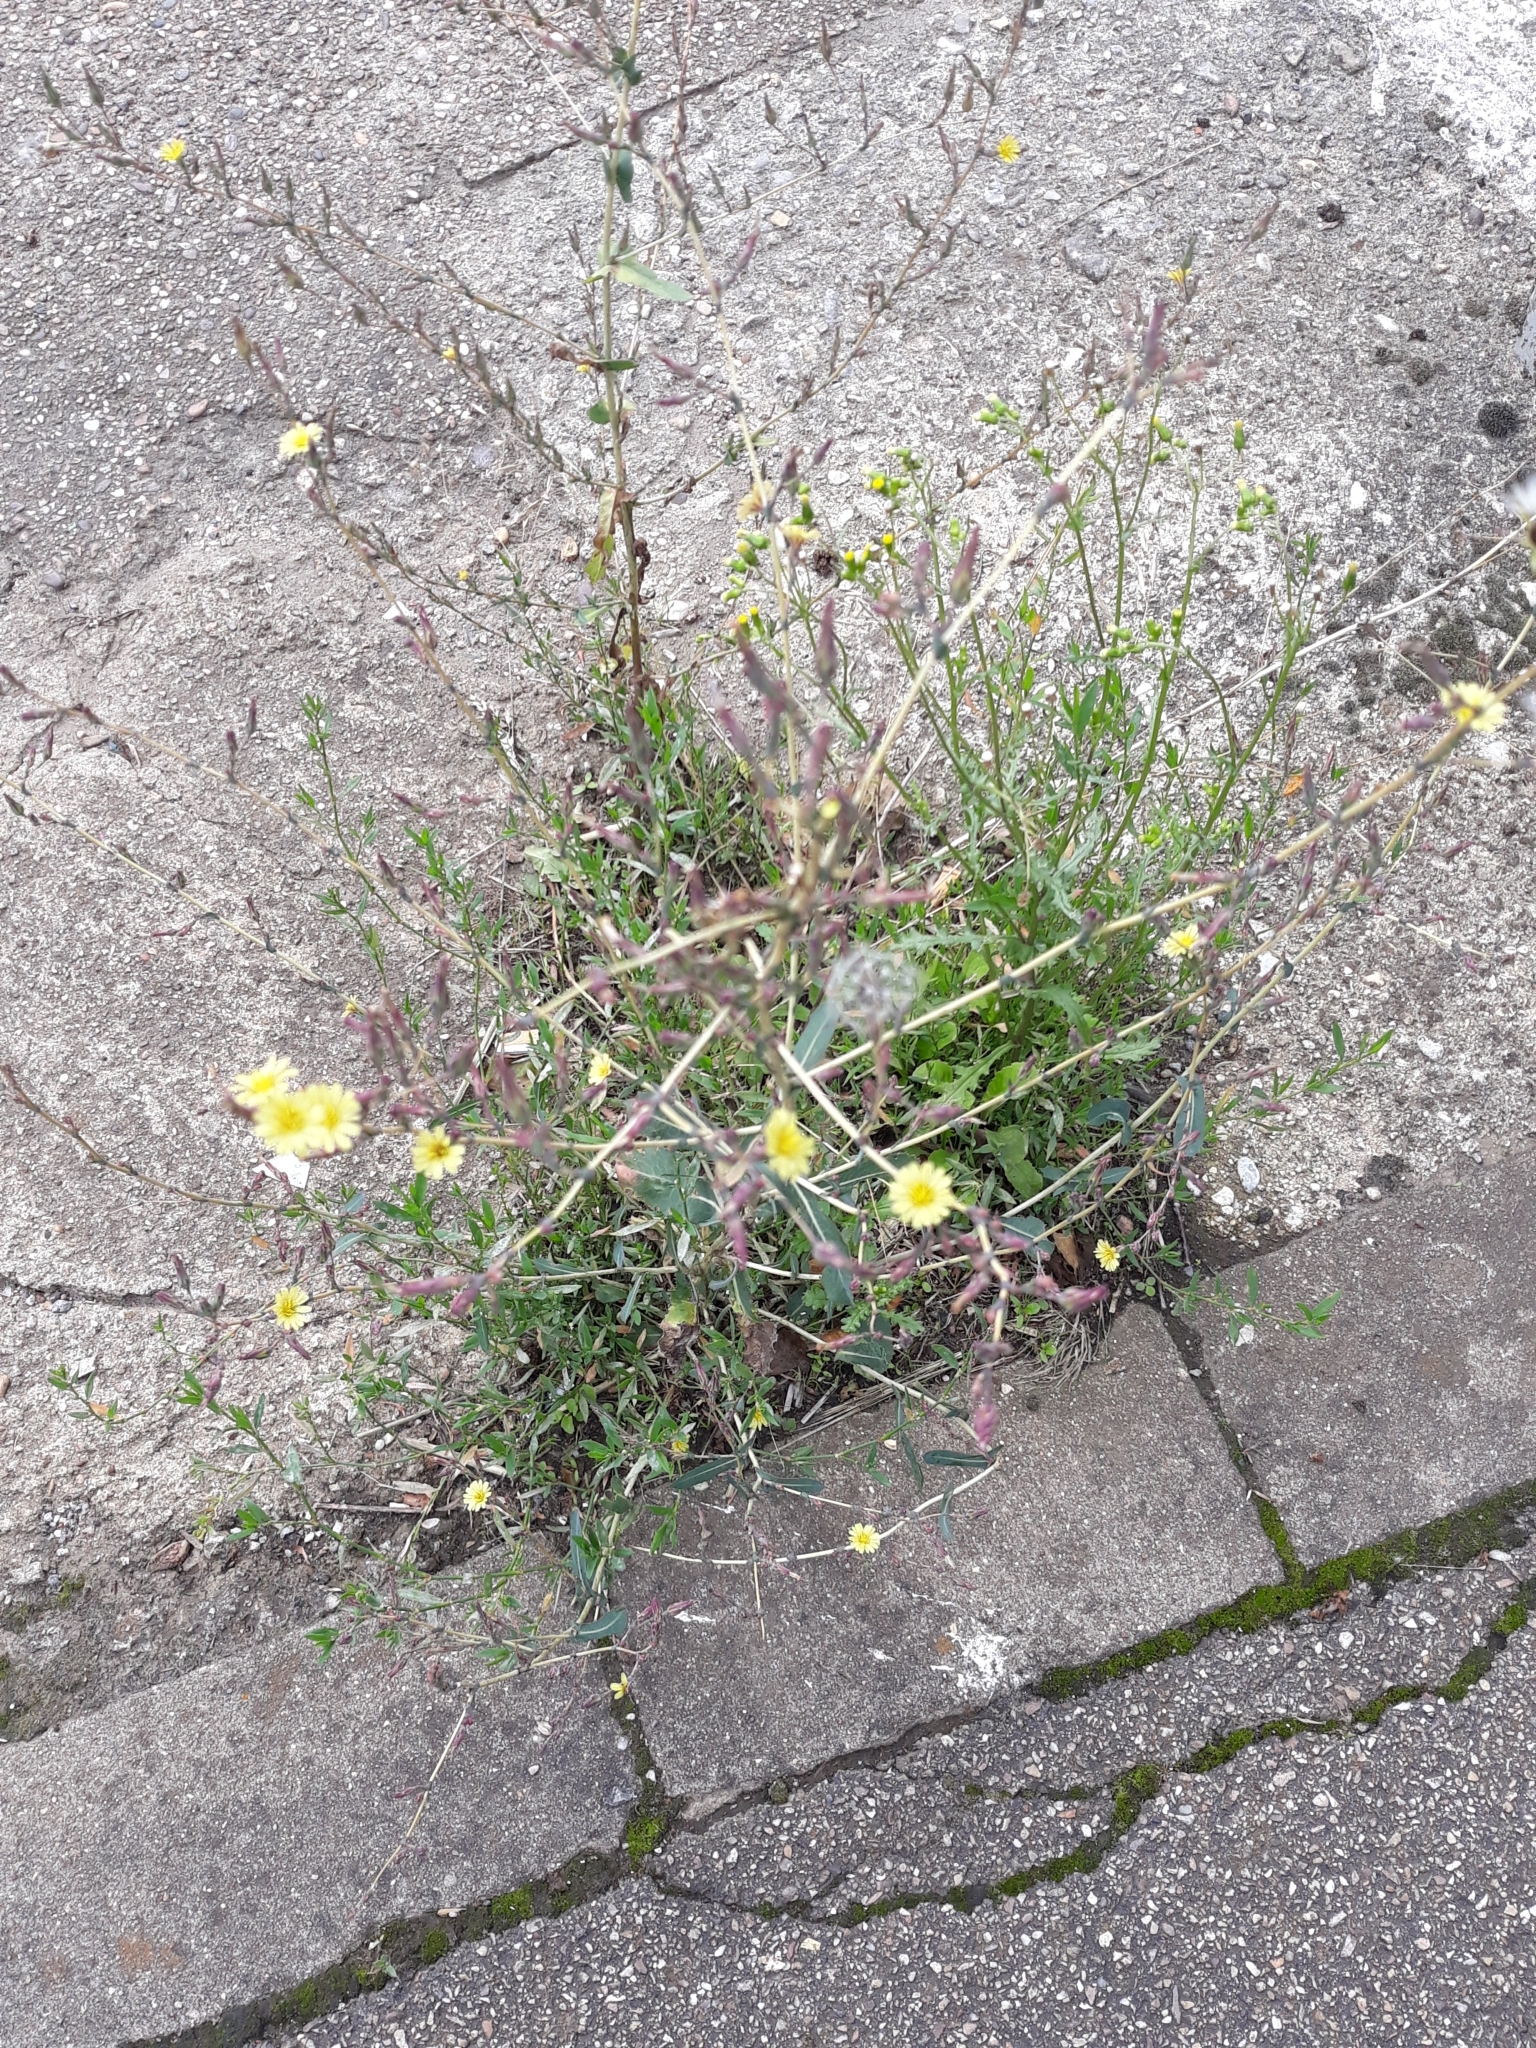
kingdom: Plantae
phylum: Tracheophyta
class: Magnoliopsida
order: Asterales
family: Asteraceae
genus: Lactuca
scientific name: Lactuca serriola
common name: Prickly lettuce
